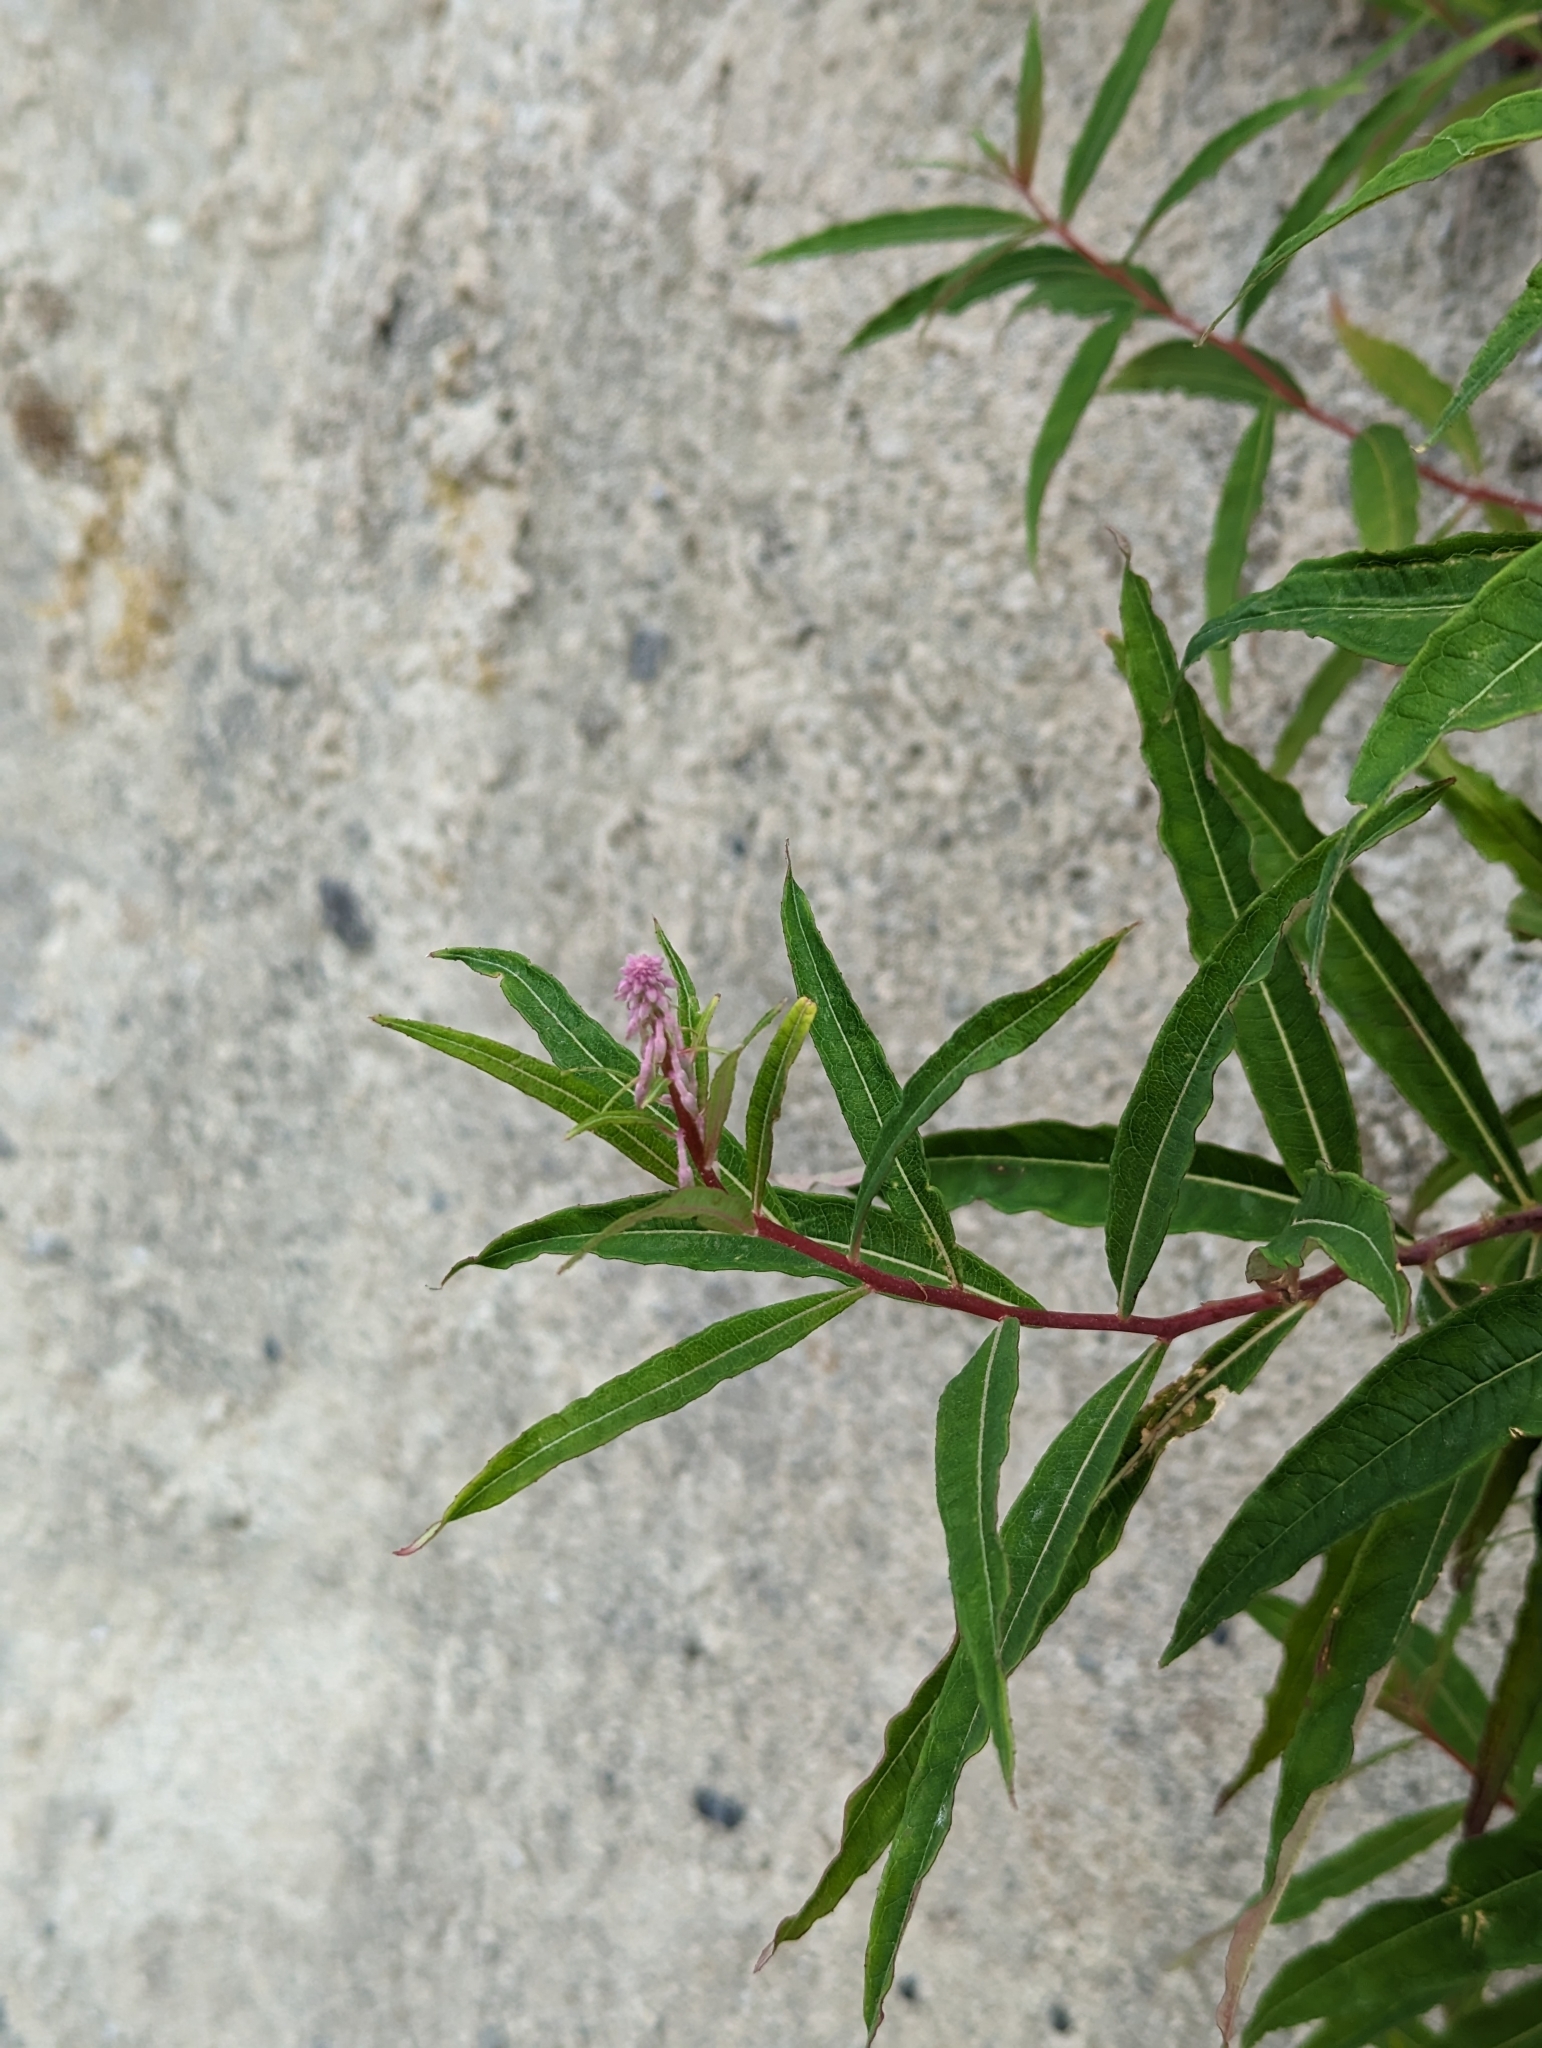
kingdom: Plantae
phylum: Tracheophyta
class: Magnoliopsida
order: Myrtales
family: Onagraceae
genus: Chamaenerion
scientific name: Chamaenerion angustifolium
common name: Fireweed
